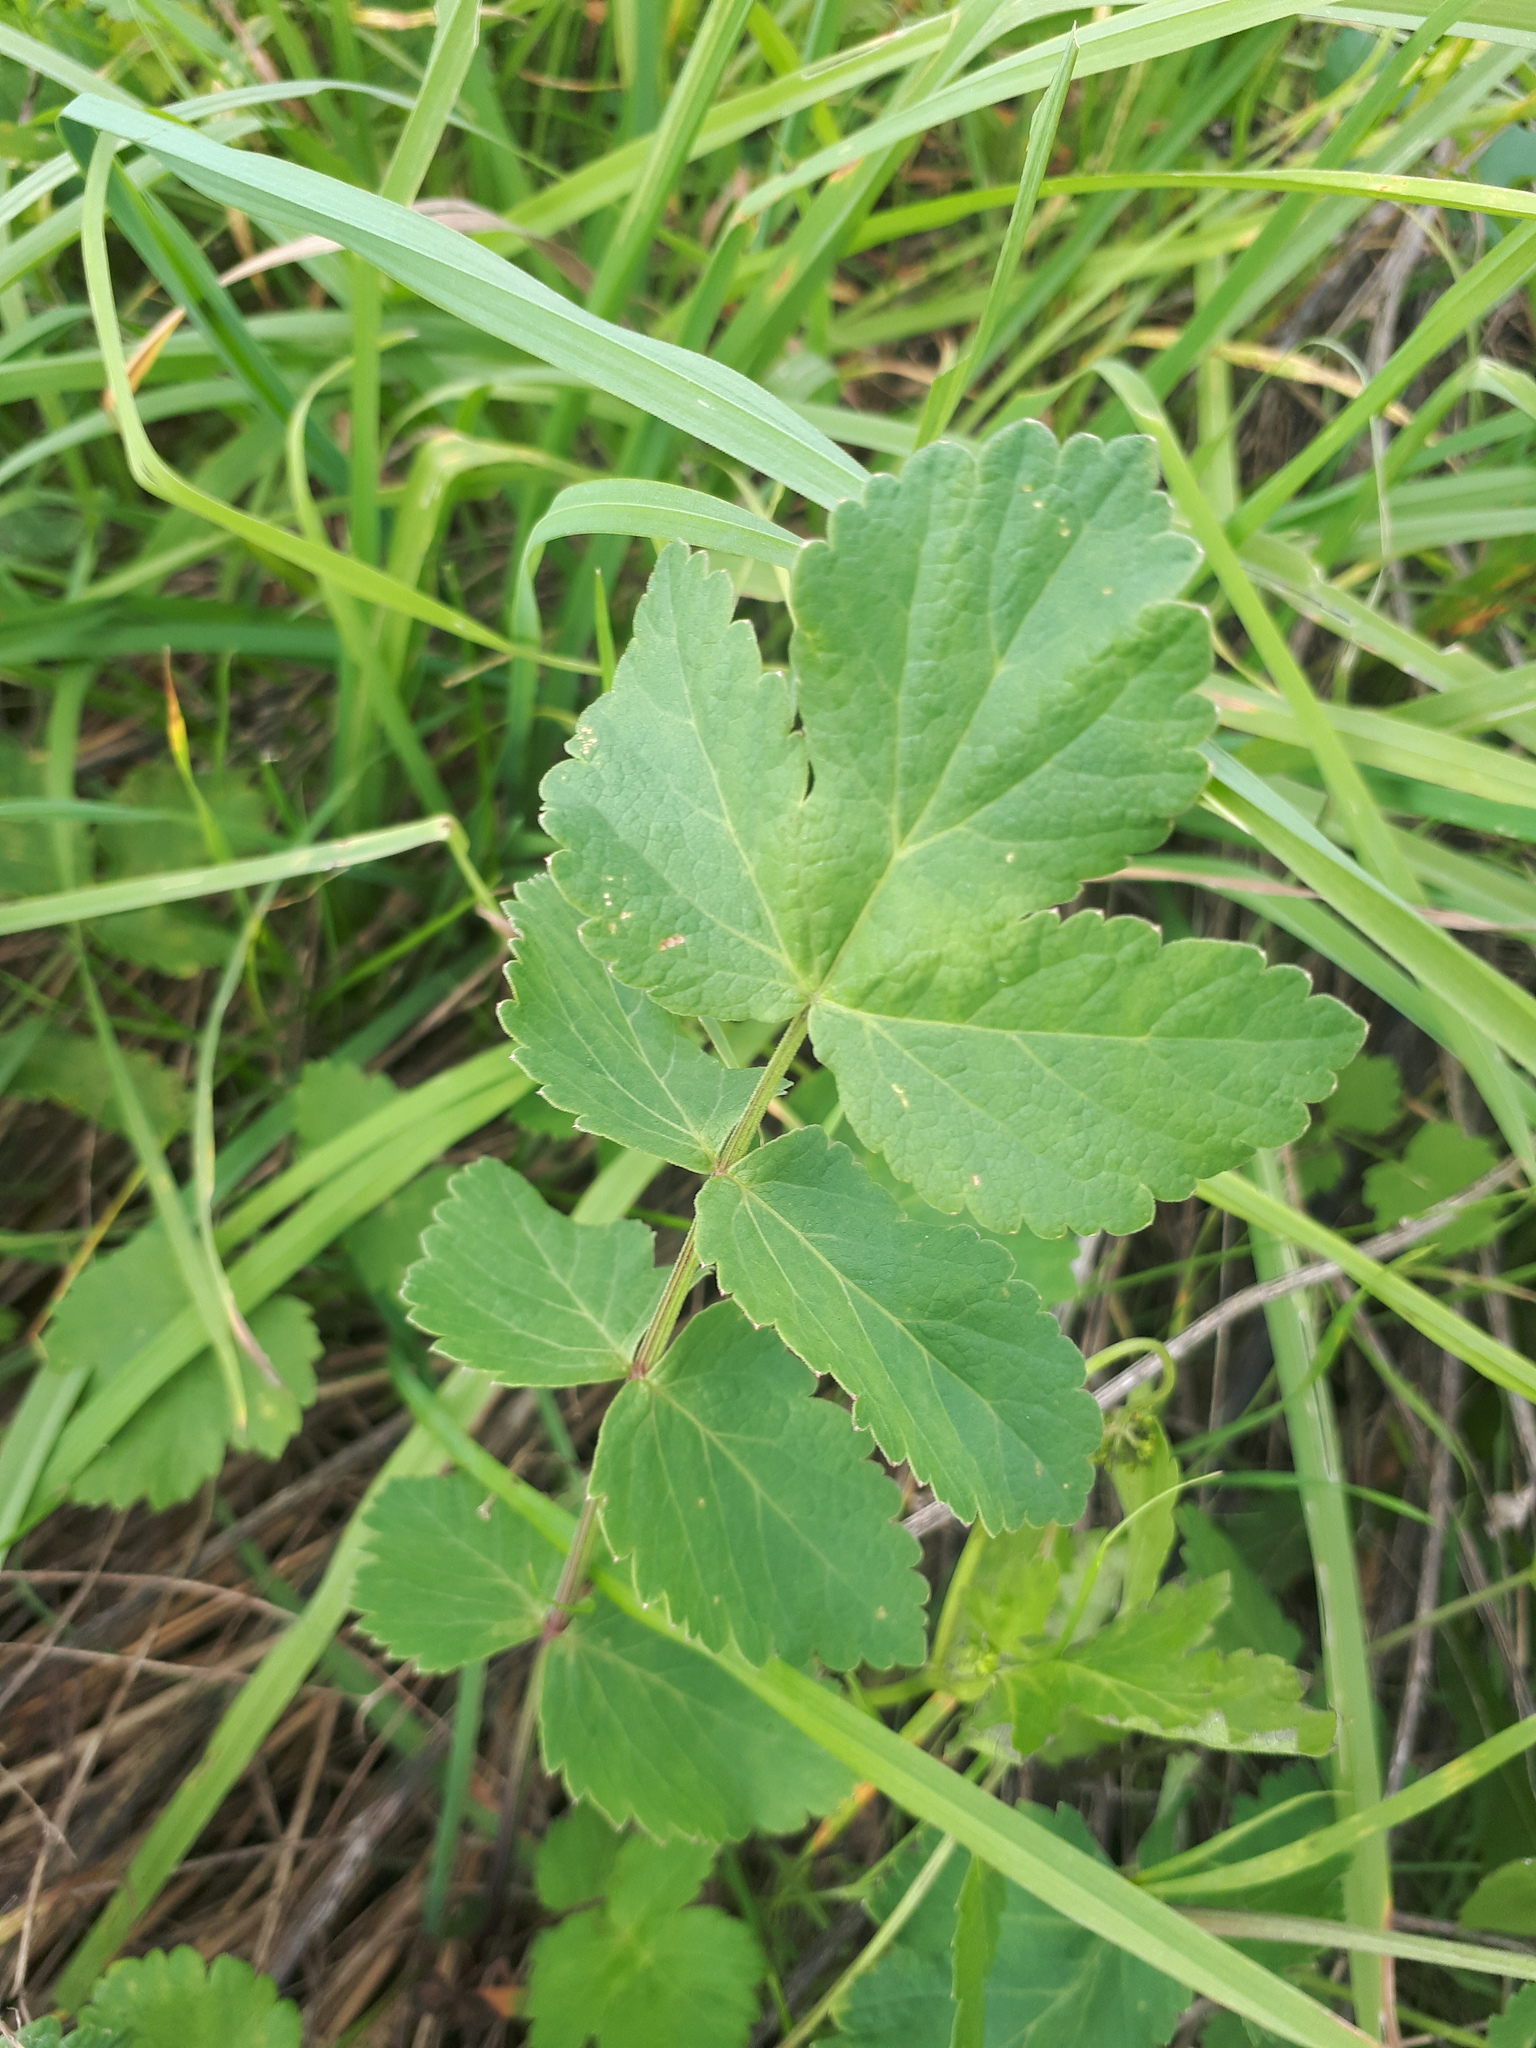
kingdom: Plantae
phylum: Tracheophyta
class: Magnoliopsida
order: Apiales
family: Apiaceae
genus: Pimpinella
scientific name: Pimpinella saxifraga
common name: Burnet-saxifrage
